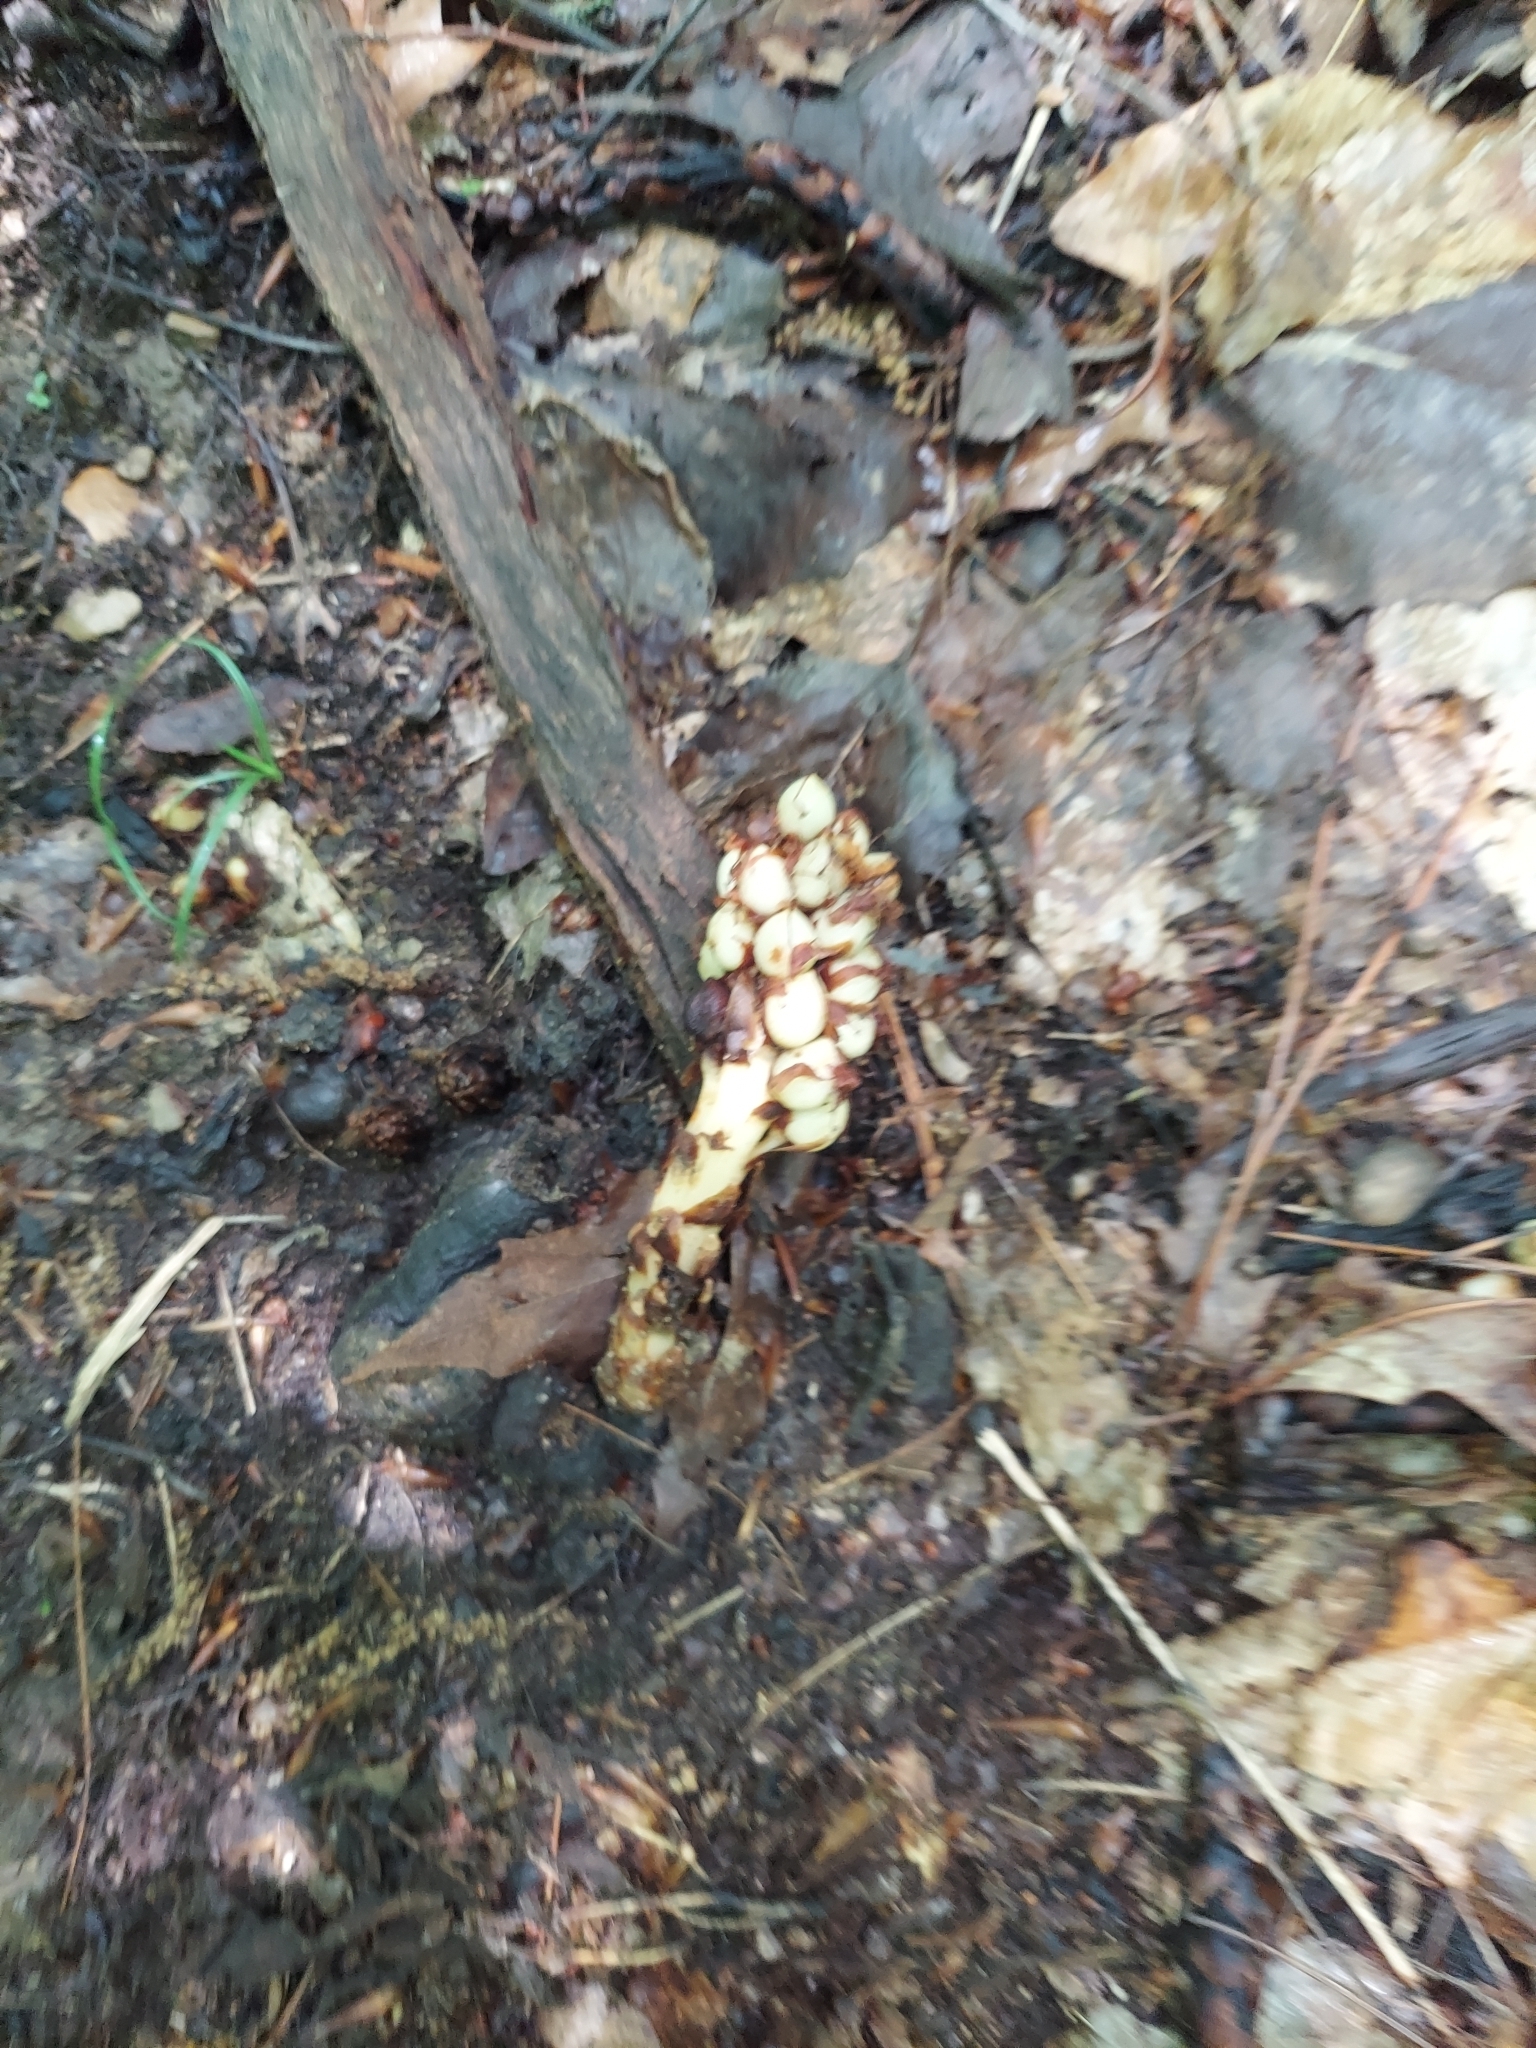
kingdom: Plantae
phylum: Tracheophyta
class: Magnoliopsida
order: Lamiales
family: Orobanchaceae
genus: Conopholis
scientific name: Conopholis americana
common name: American cancer-root
